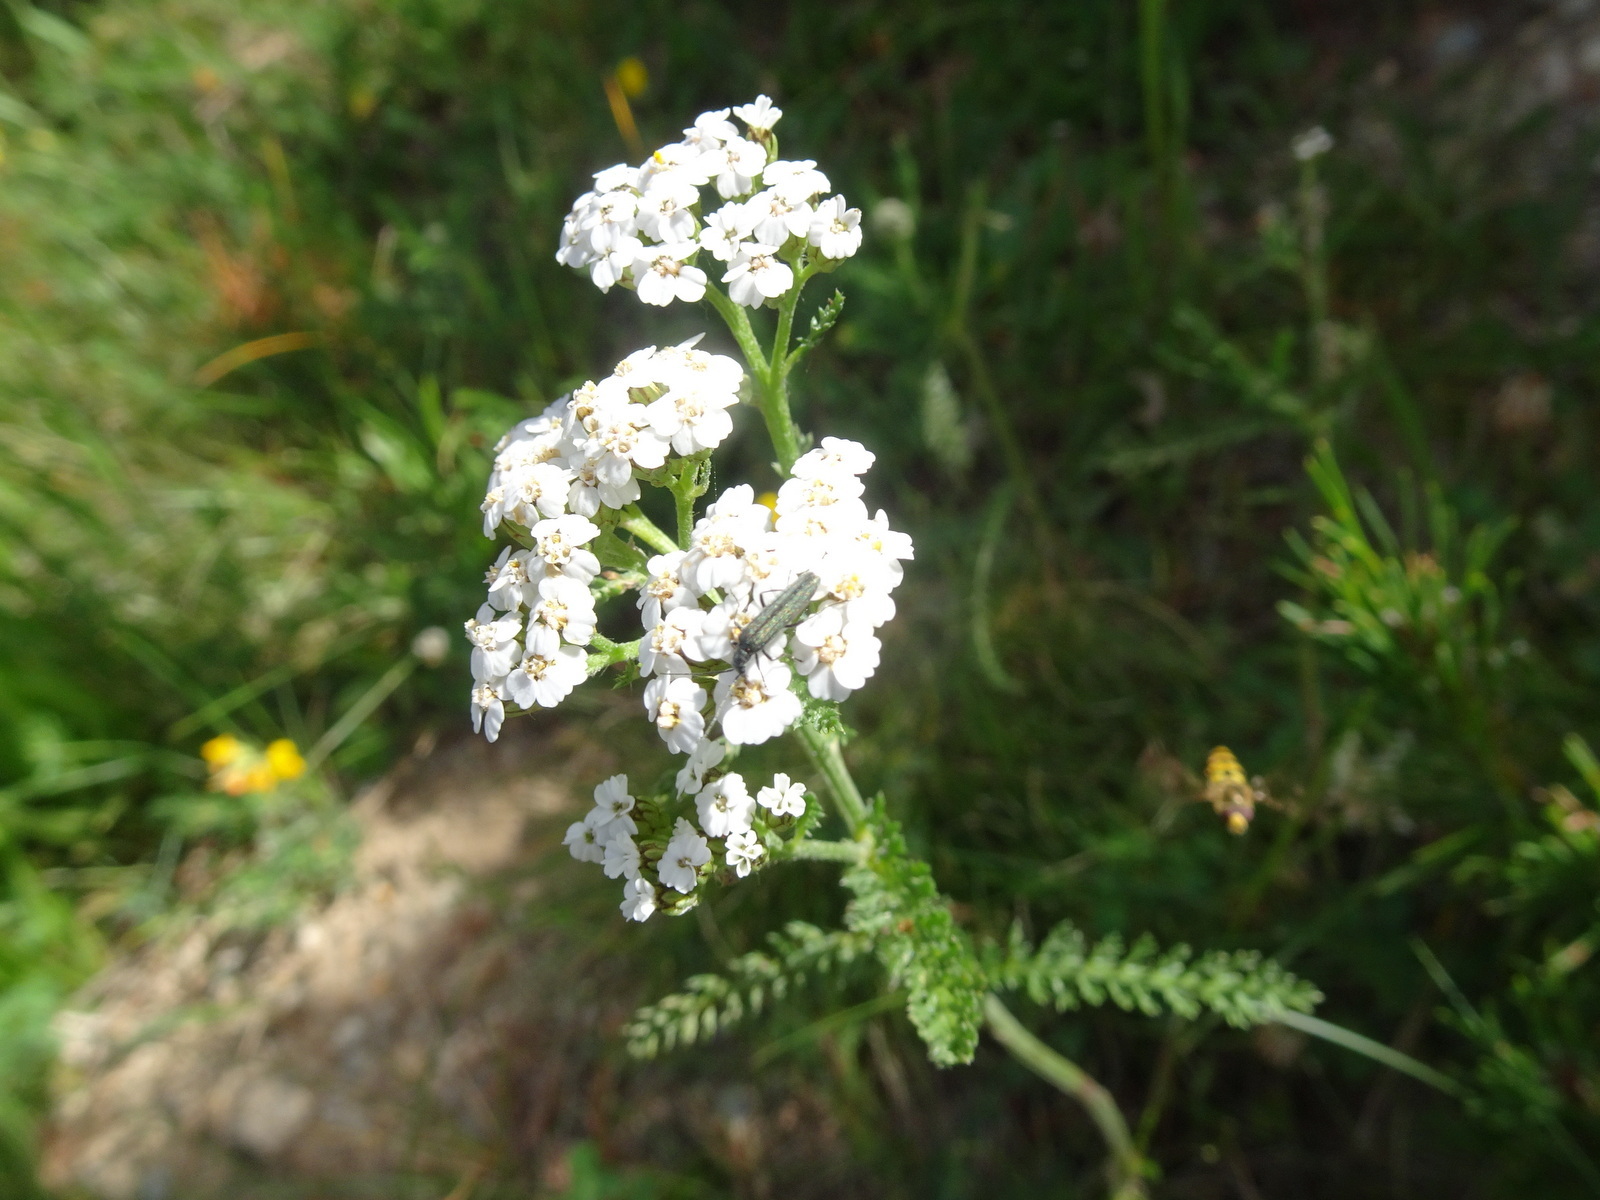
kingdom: Plantae
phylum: Tracheophyta
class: Magnoliopsida
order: Asterales
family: Asteraceae
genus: Achillea
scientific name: Achillea millefolium
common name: Yarrow
